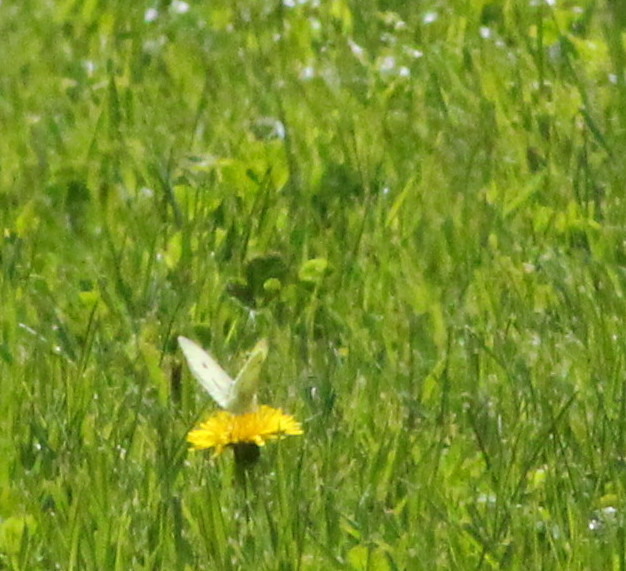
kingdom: Animalia
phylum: Arthropoda
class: Insecta
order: Lepidoptera
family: Pieridae
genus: Pieris
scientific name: Pieris rapae
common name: Small white
